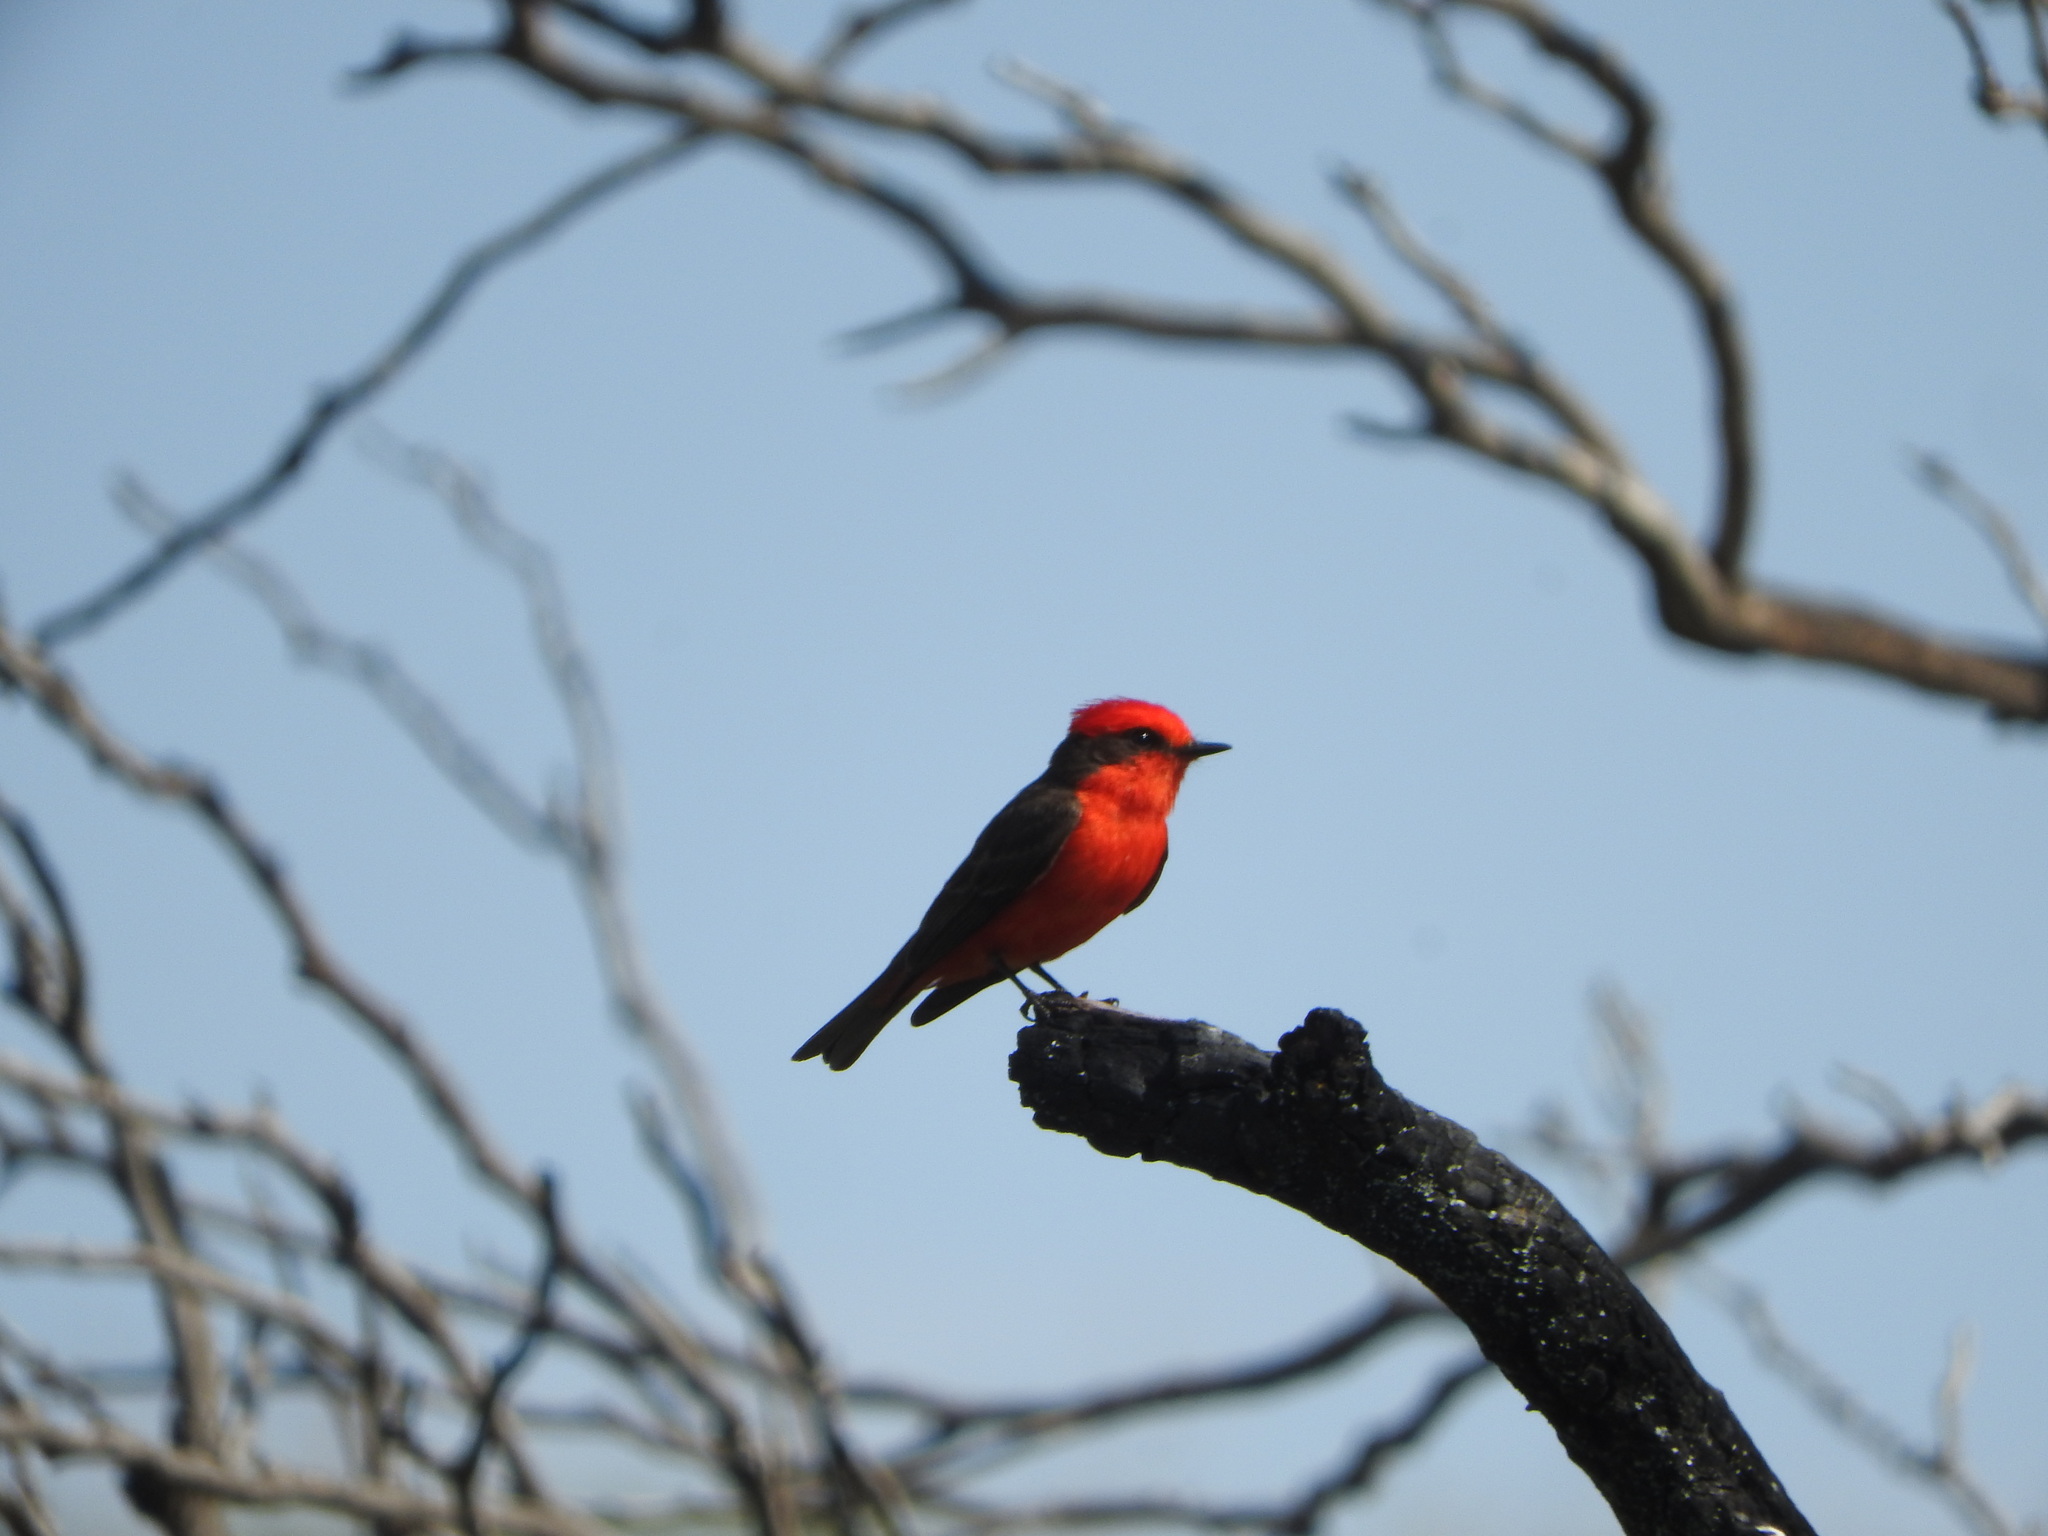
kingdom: Animalia
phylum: Chordata
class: Aves
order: Passeriformes
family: Tyrannidae
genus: Pyrocephalus
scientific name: Pyrocephalus rubinus
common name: Vermilion flycatcher
